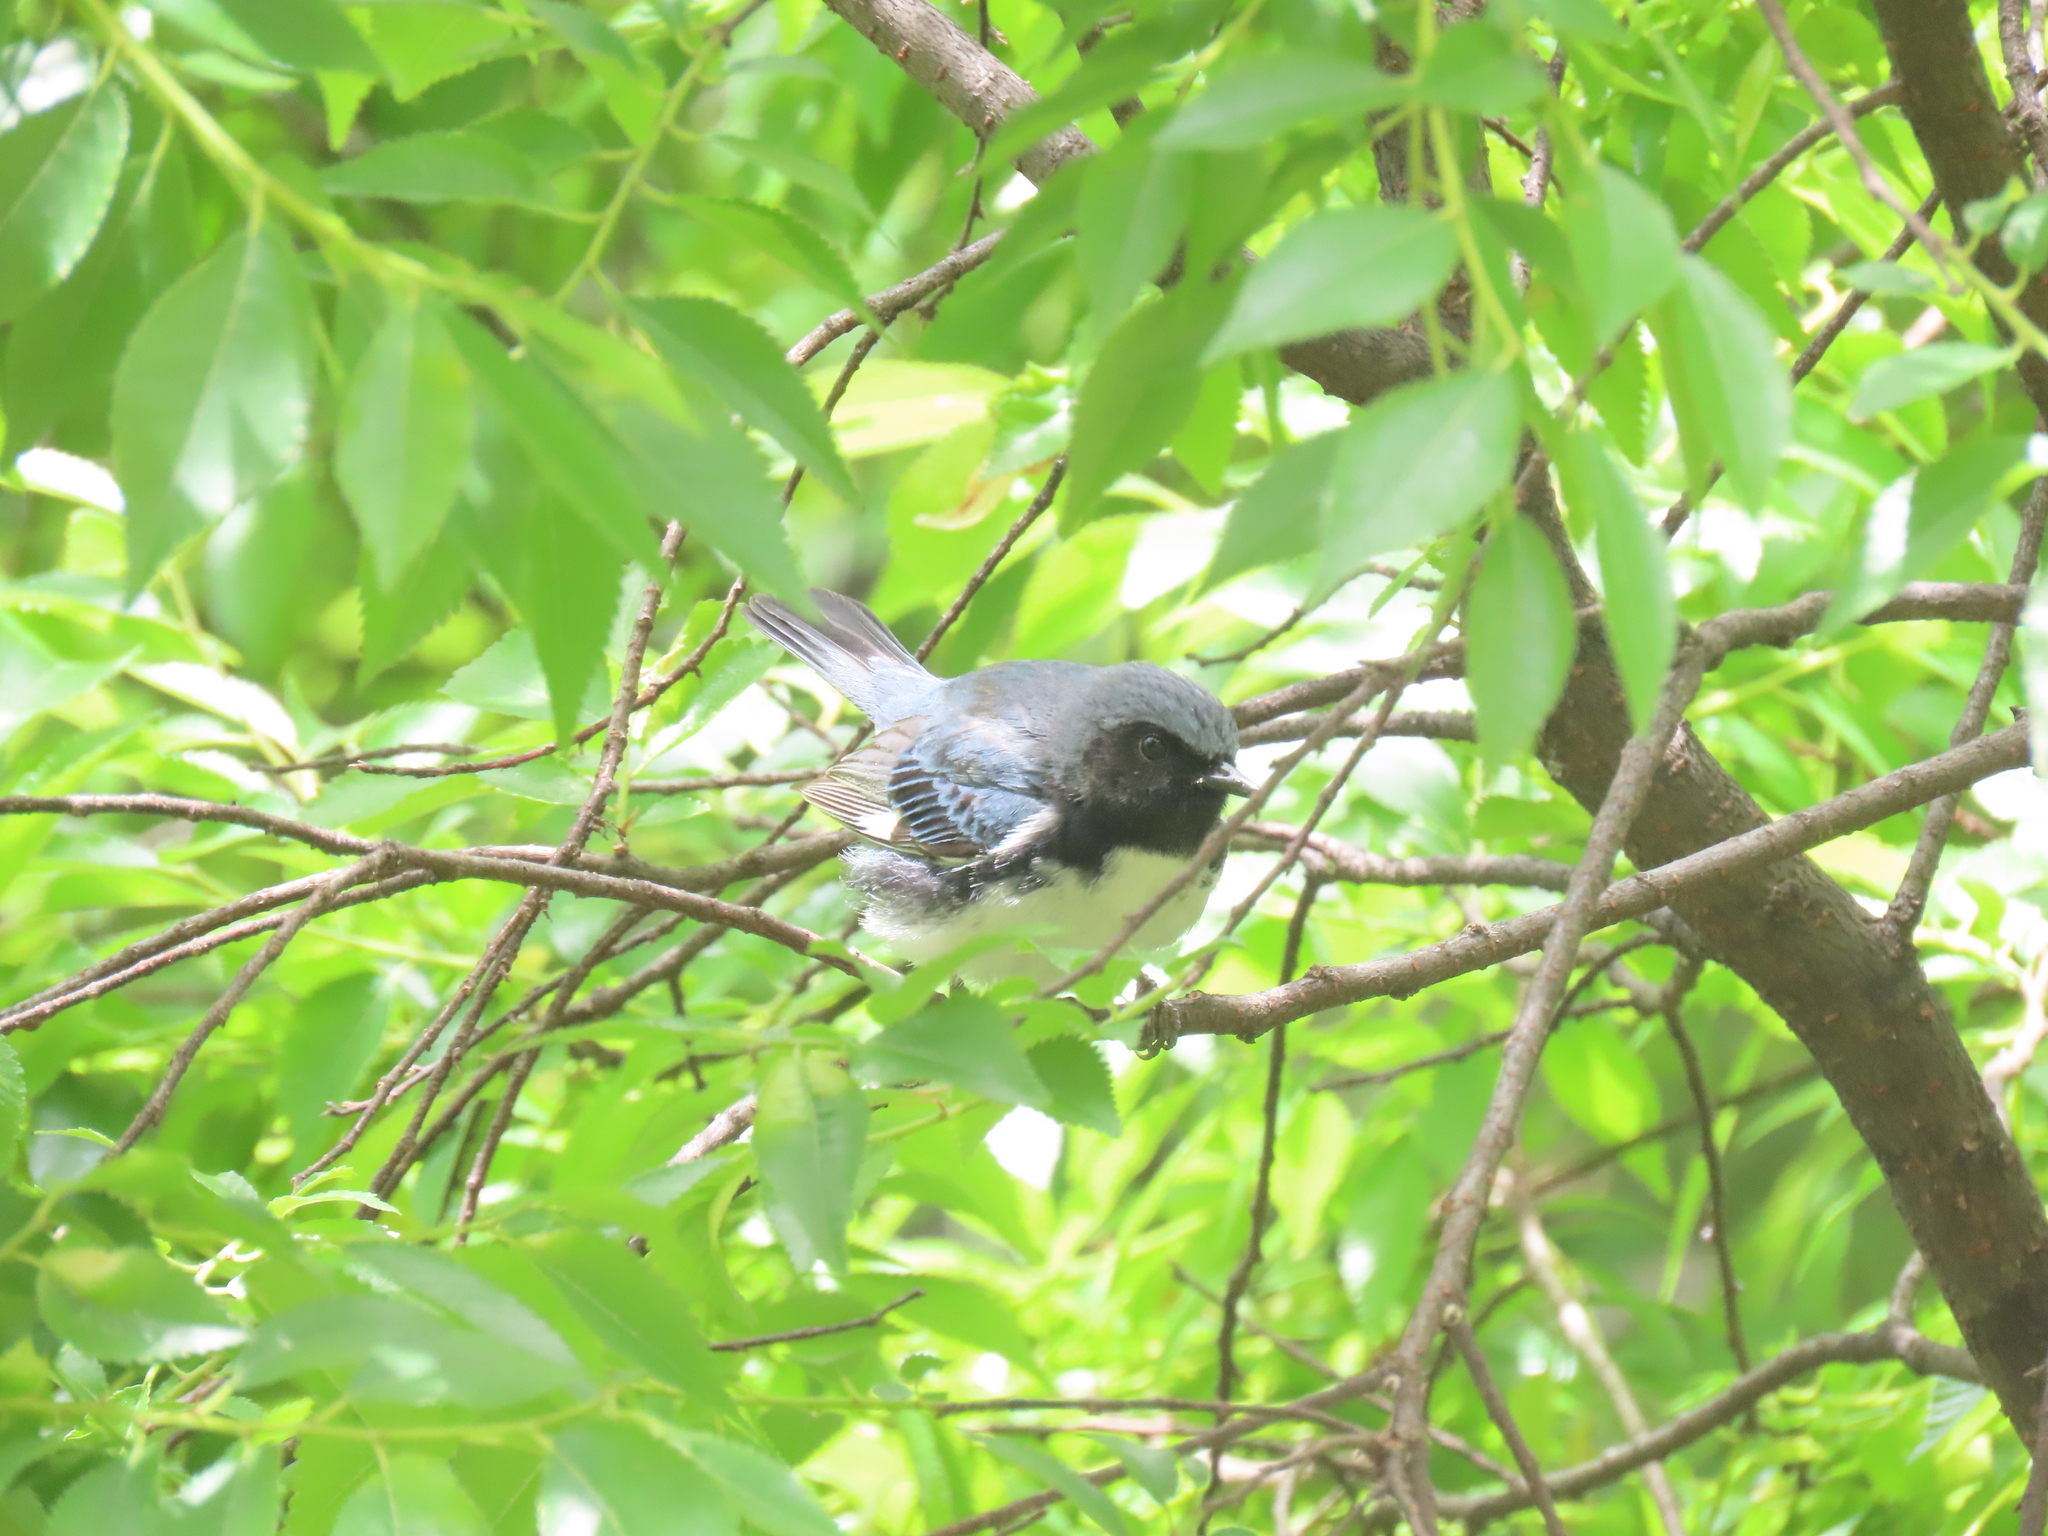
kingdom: Animalia
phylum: Chordata
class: Aves
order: Passeriformes
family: Parulidae
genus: Setophaga
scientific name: Setophaga caerulescens
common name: Black-throated blue warbler
